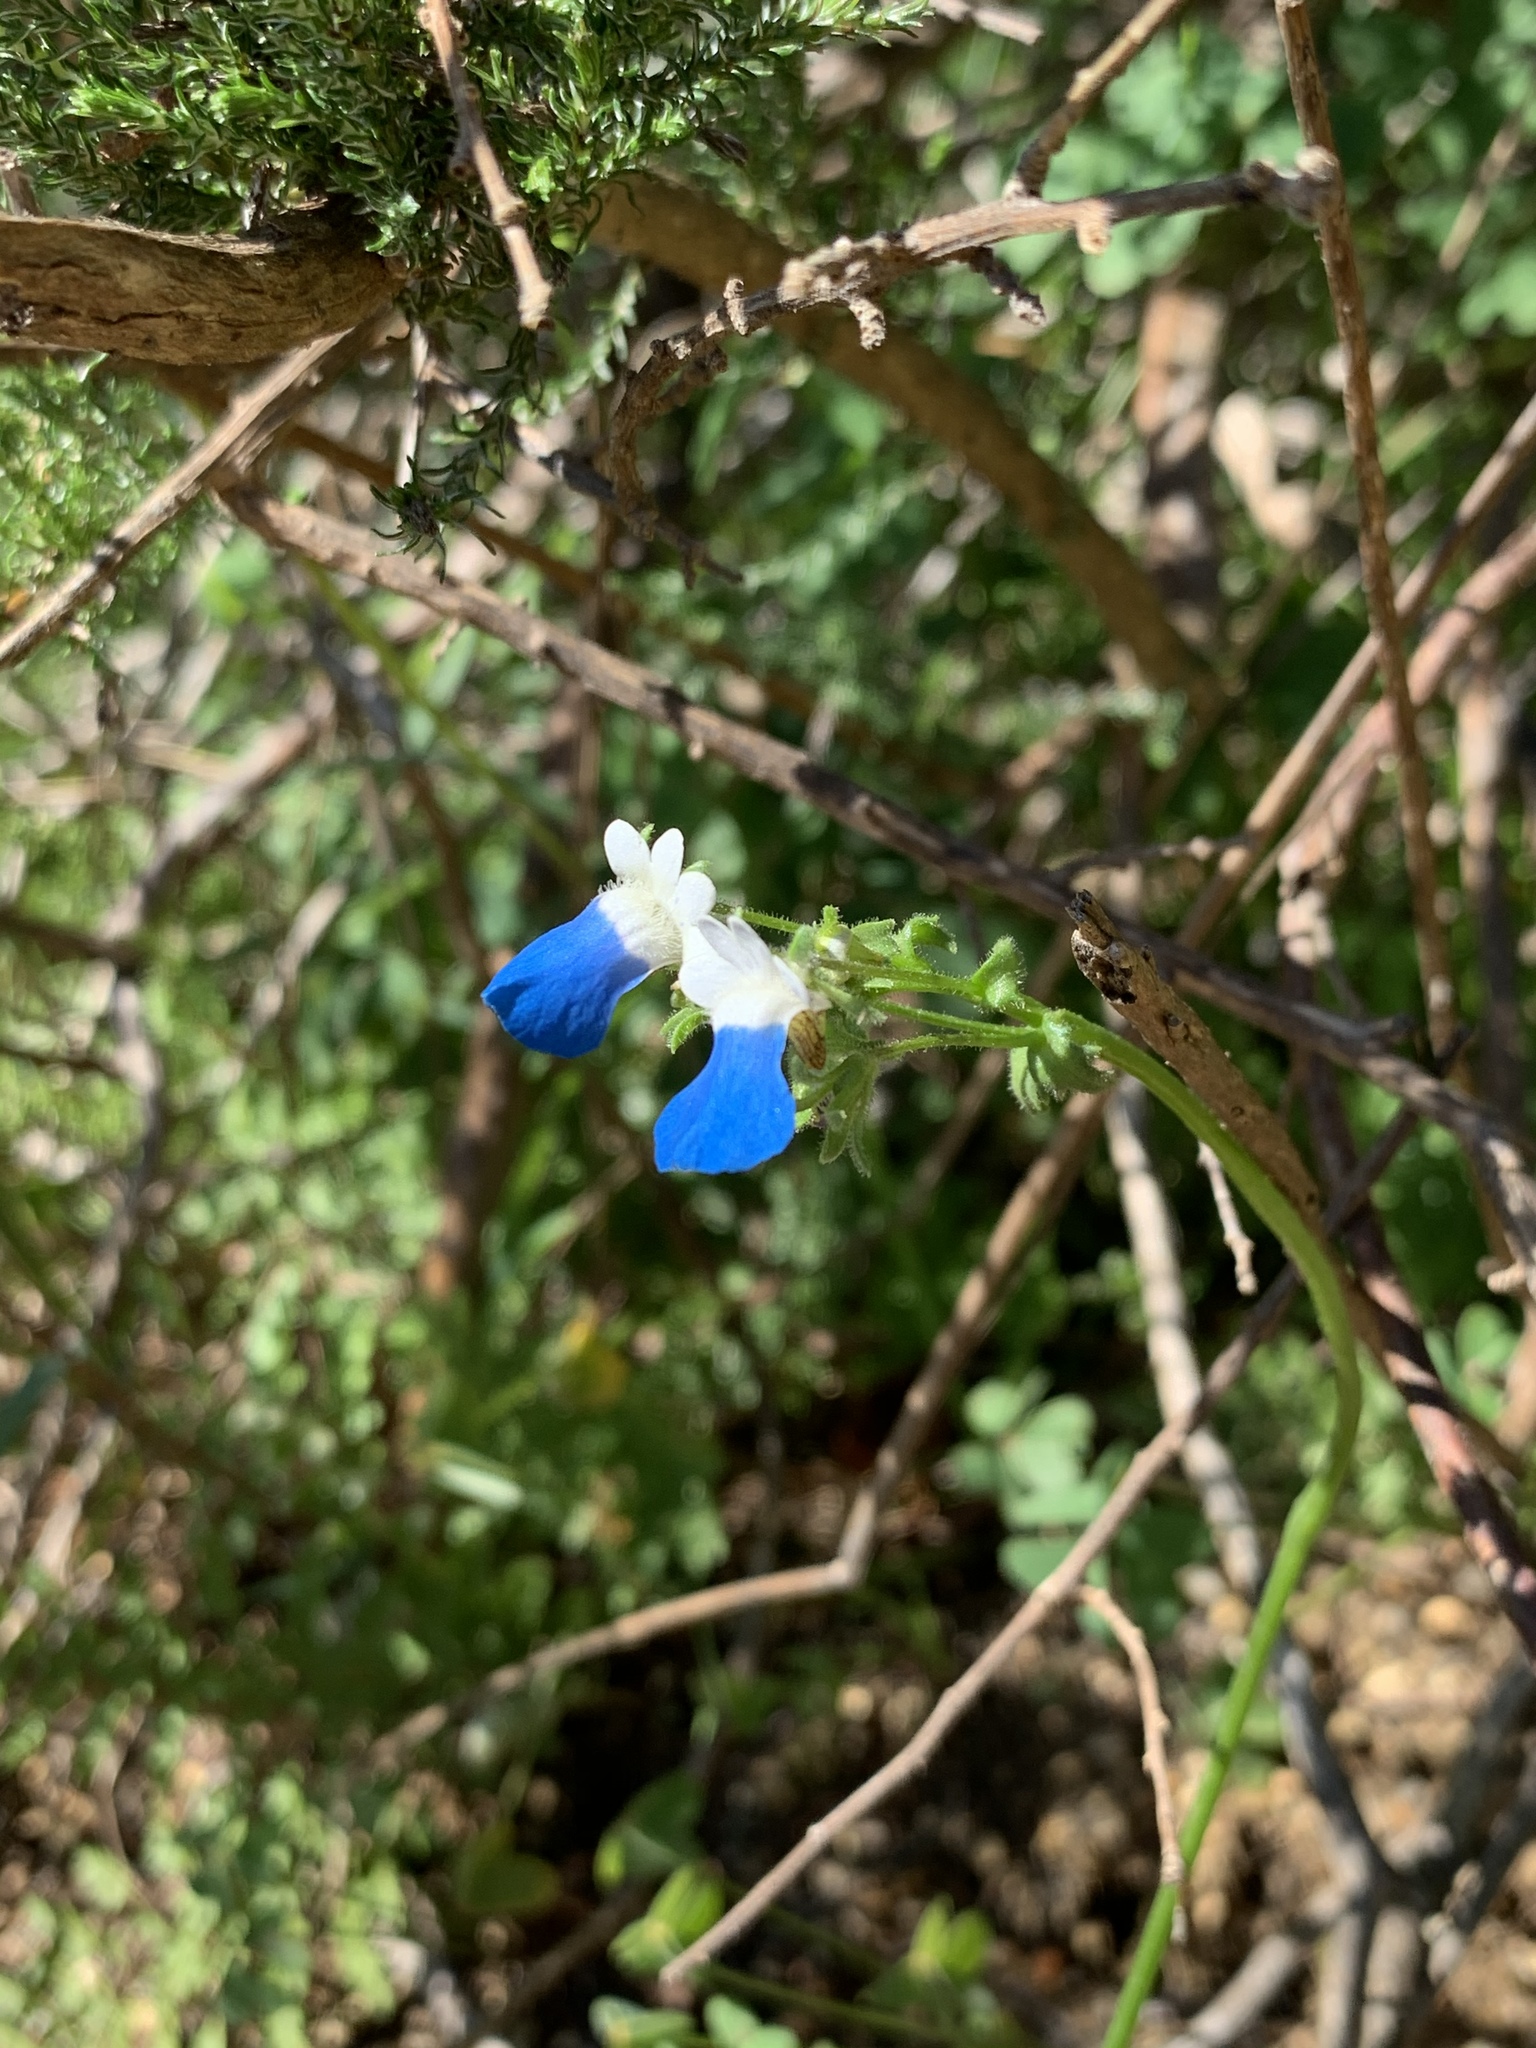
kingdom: Plantae
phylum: Tracheophyta
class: Magnoliopsida
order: Lamiales
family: Scrophulariaceae
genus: Nemesia
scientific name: Nemesia barbata
